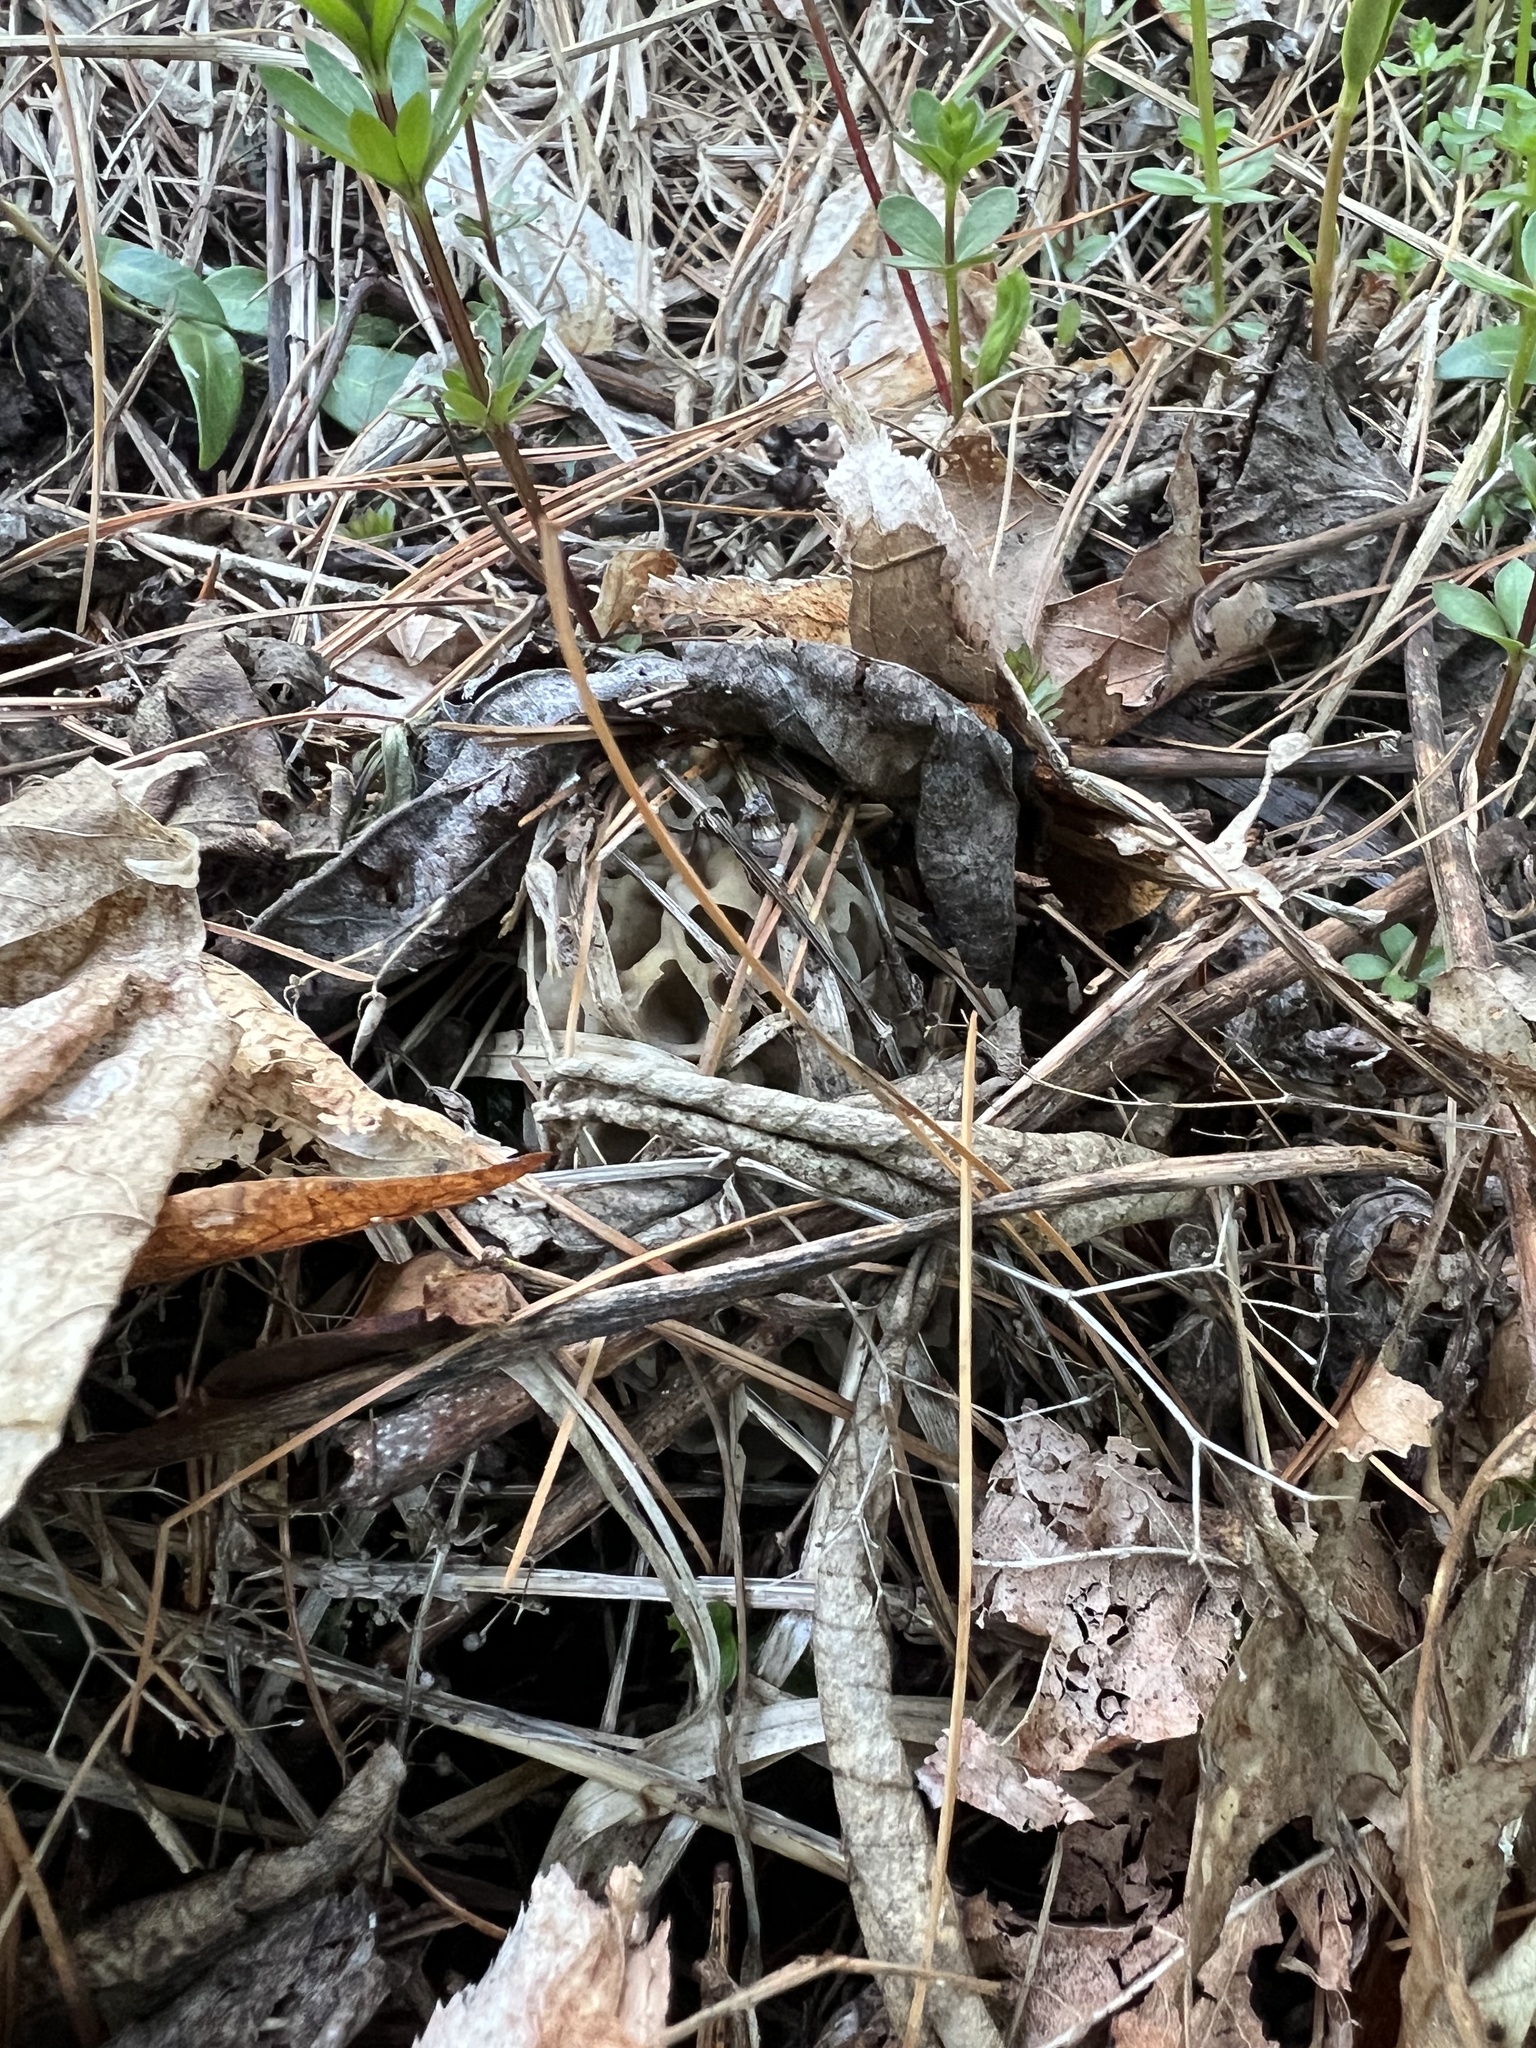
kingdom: Fungi
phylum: Ascomycota
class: Pezizomycetes
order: Pezizales
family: Morchellaceae
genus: Morchella
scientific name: Morchella americana
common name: White morel
